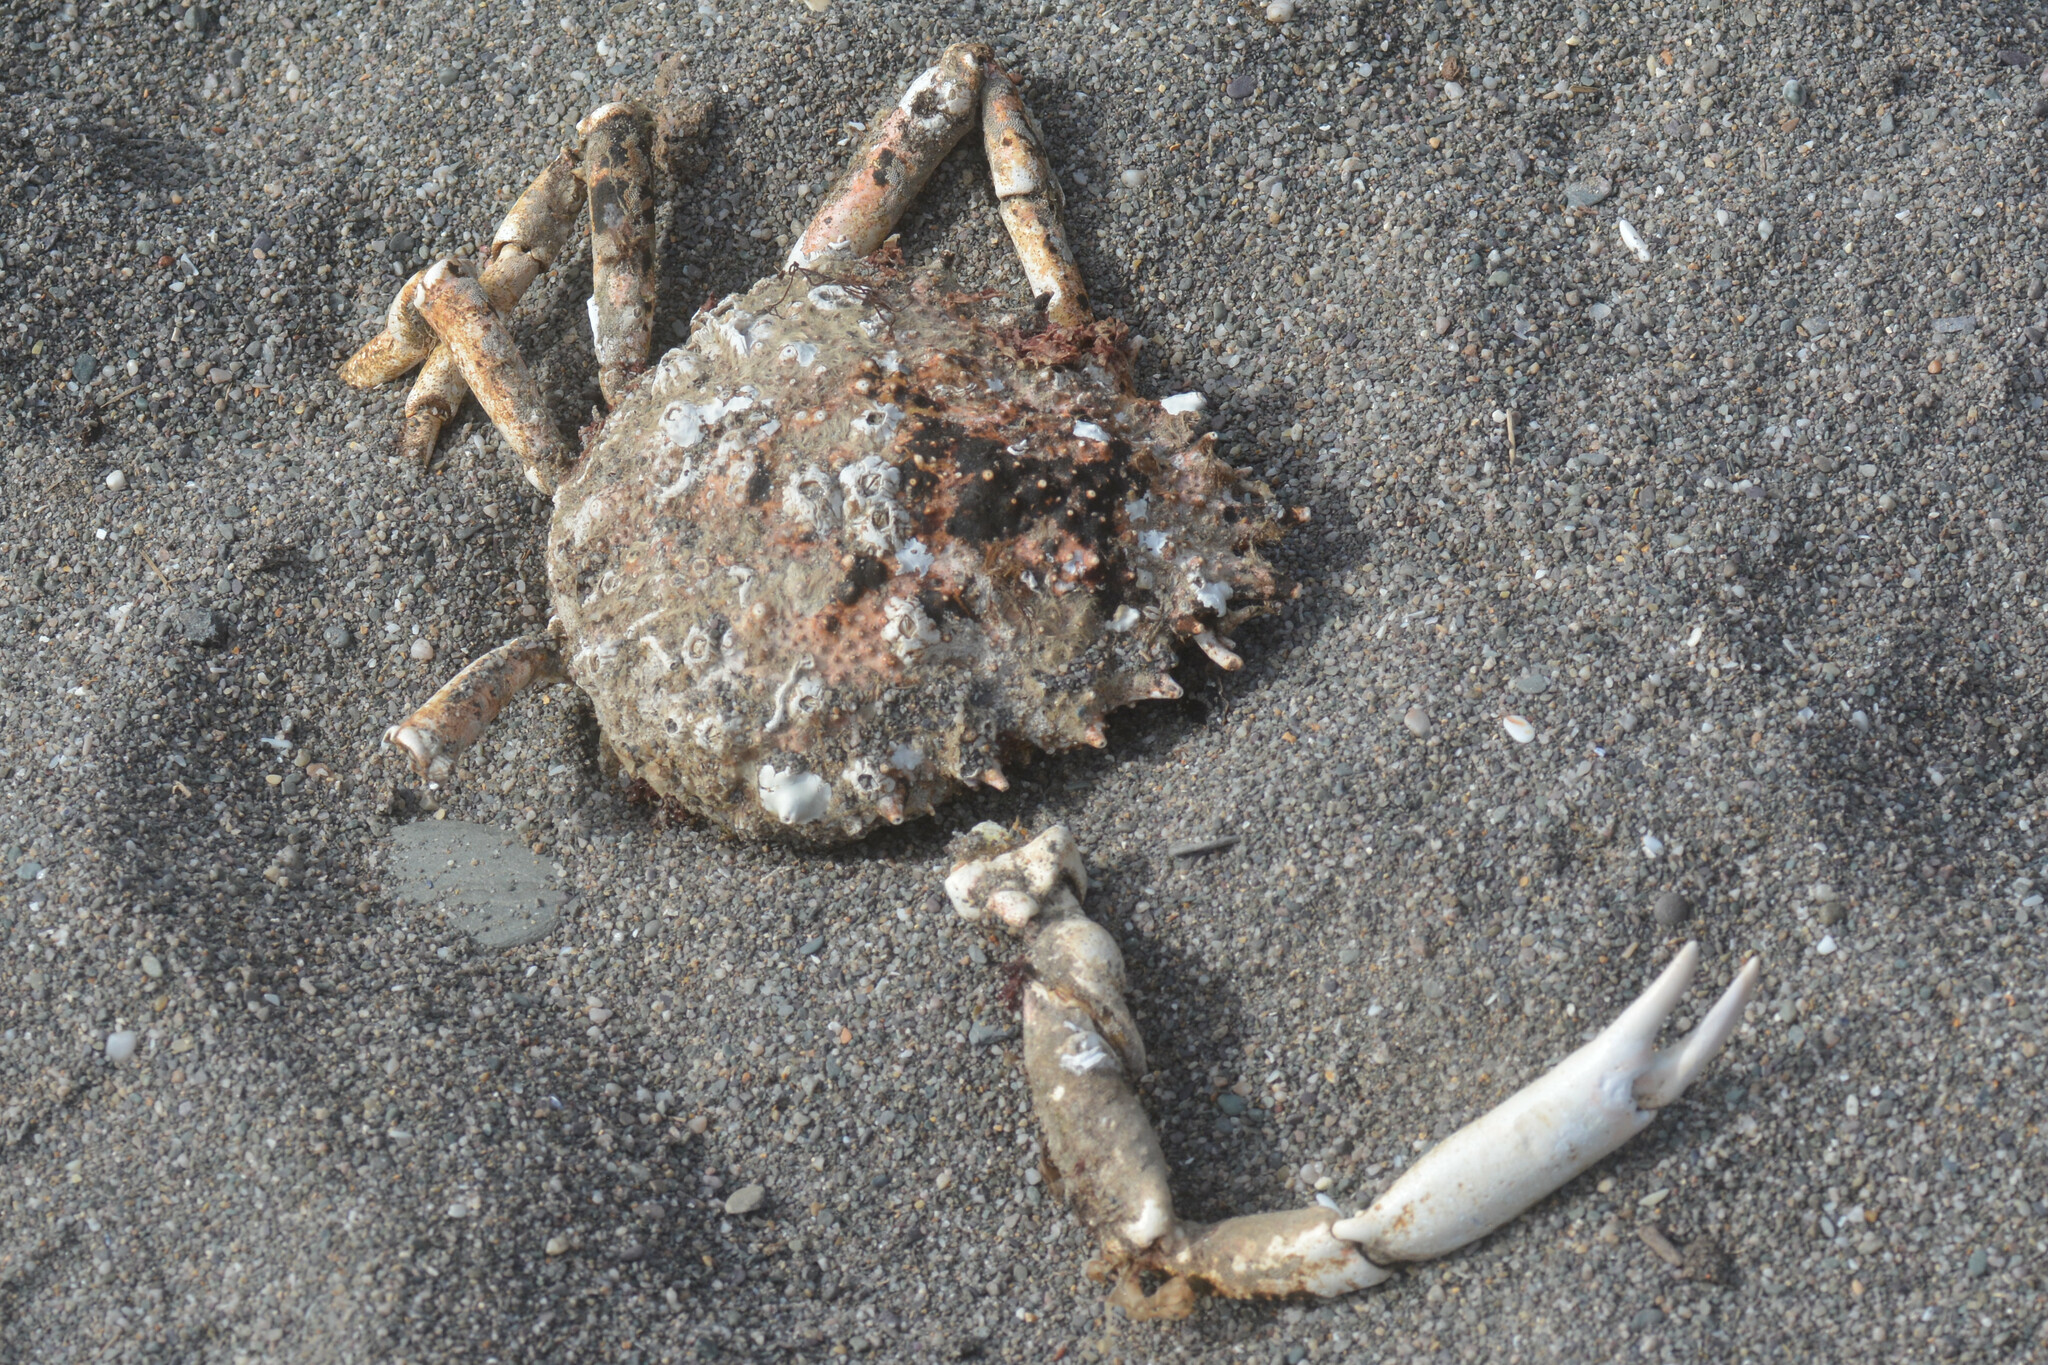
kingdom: Animalia
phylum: Arthropoda
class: Malacostraca
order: Decapoda
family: Majidae
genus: Maja
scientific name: Maja brachydactyla
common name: Common spider crab
